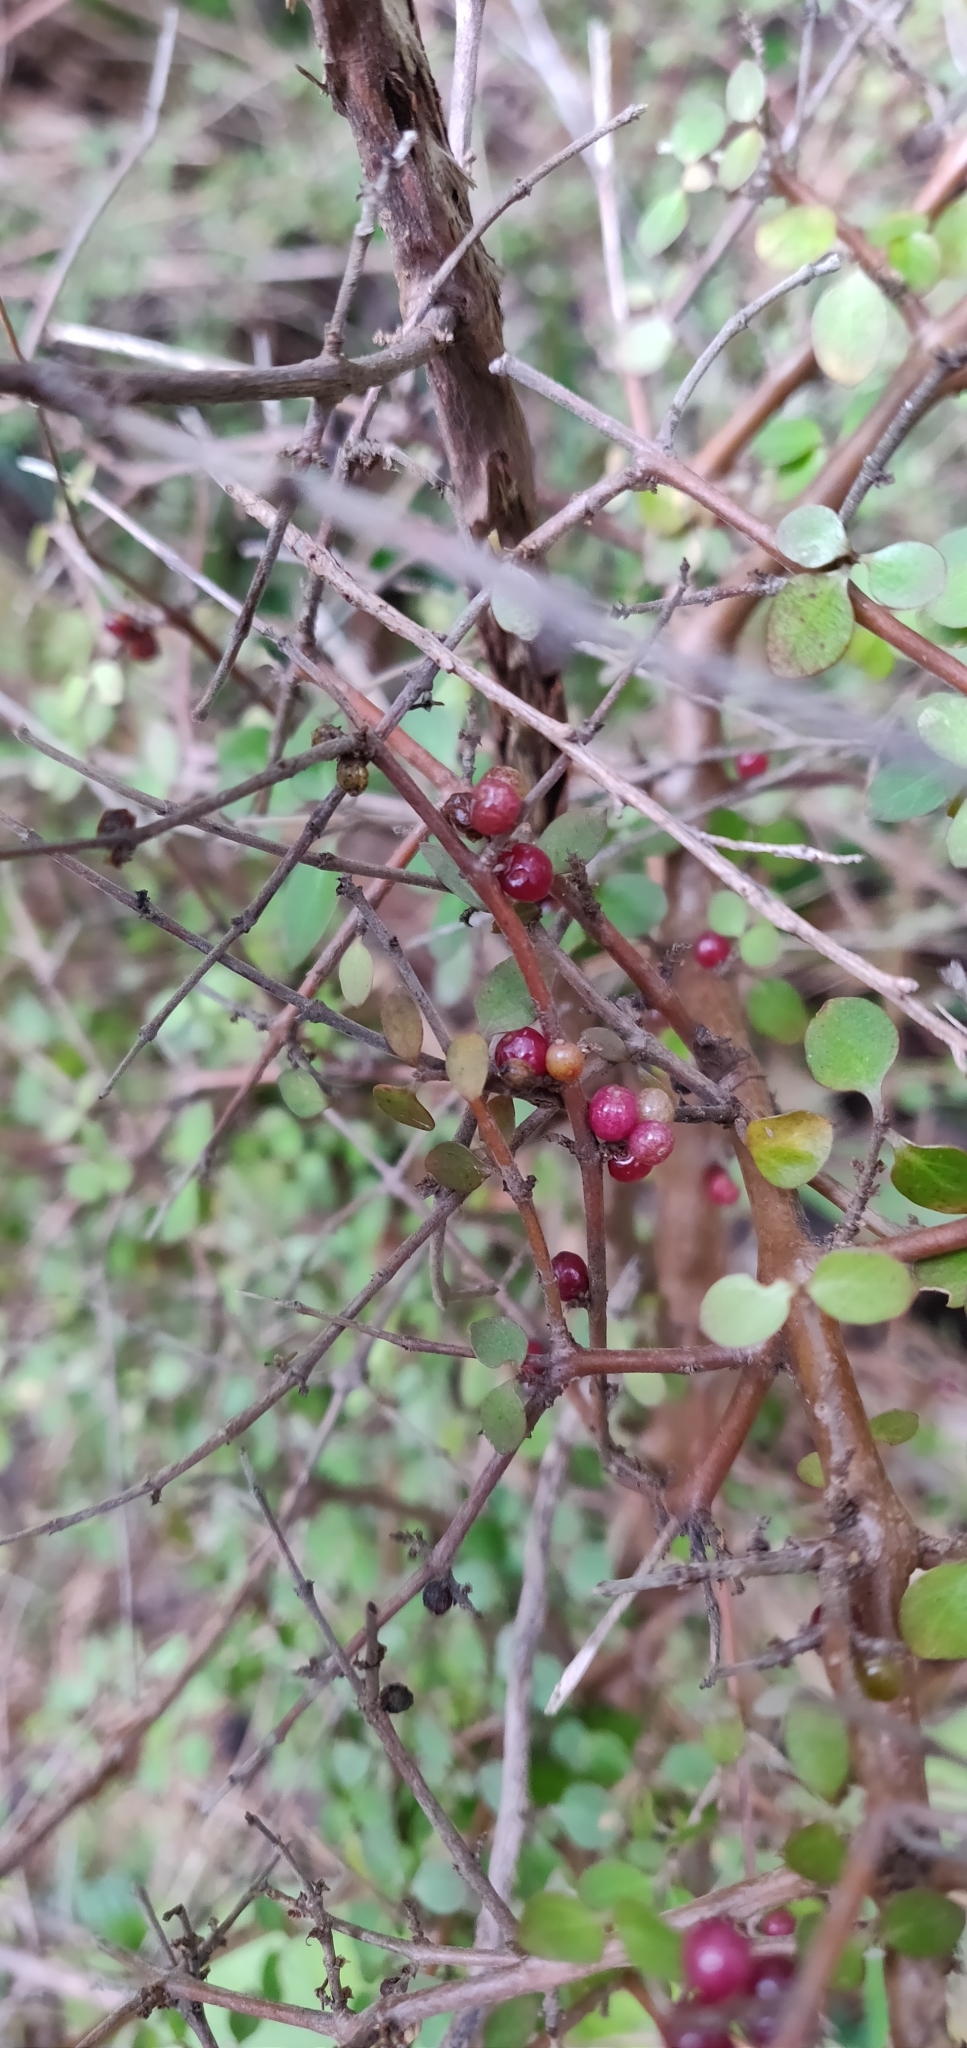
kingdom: Plantae
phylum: Tracheophyta
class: Magnoliopsida
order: Gentianales
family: Rubiaceae
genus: Coprosma
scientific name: Coprosma rhamnoides
